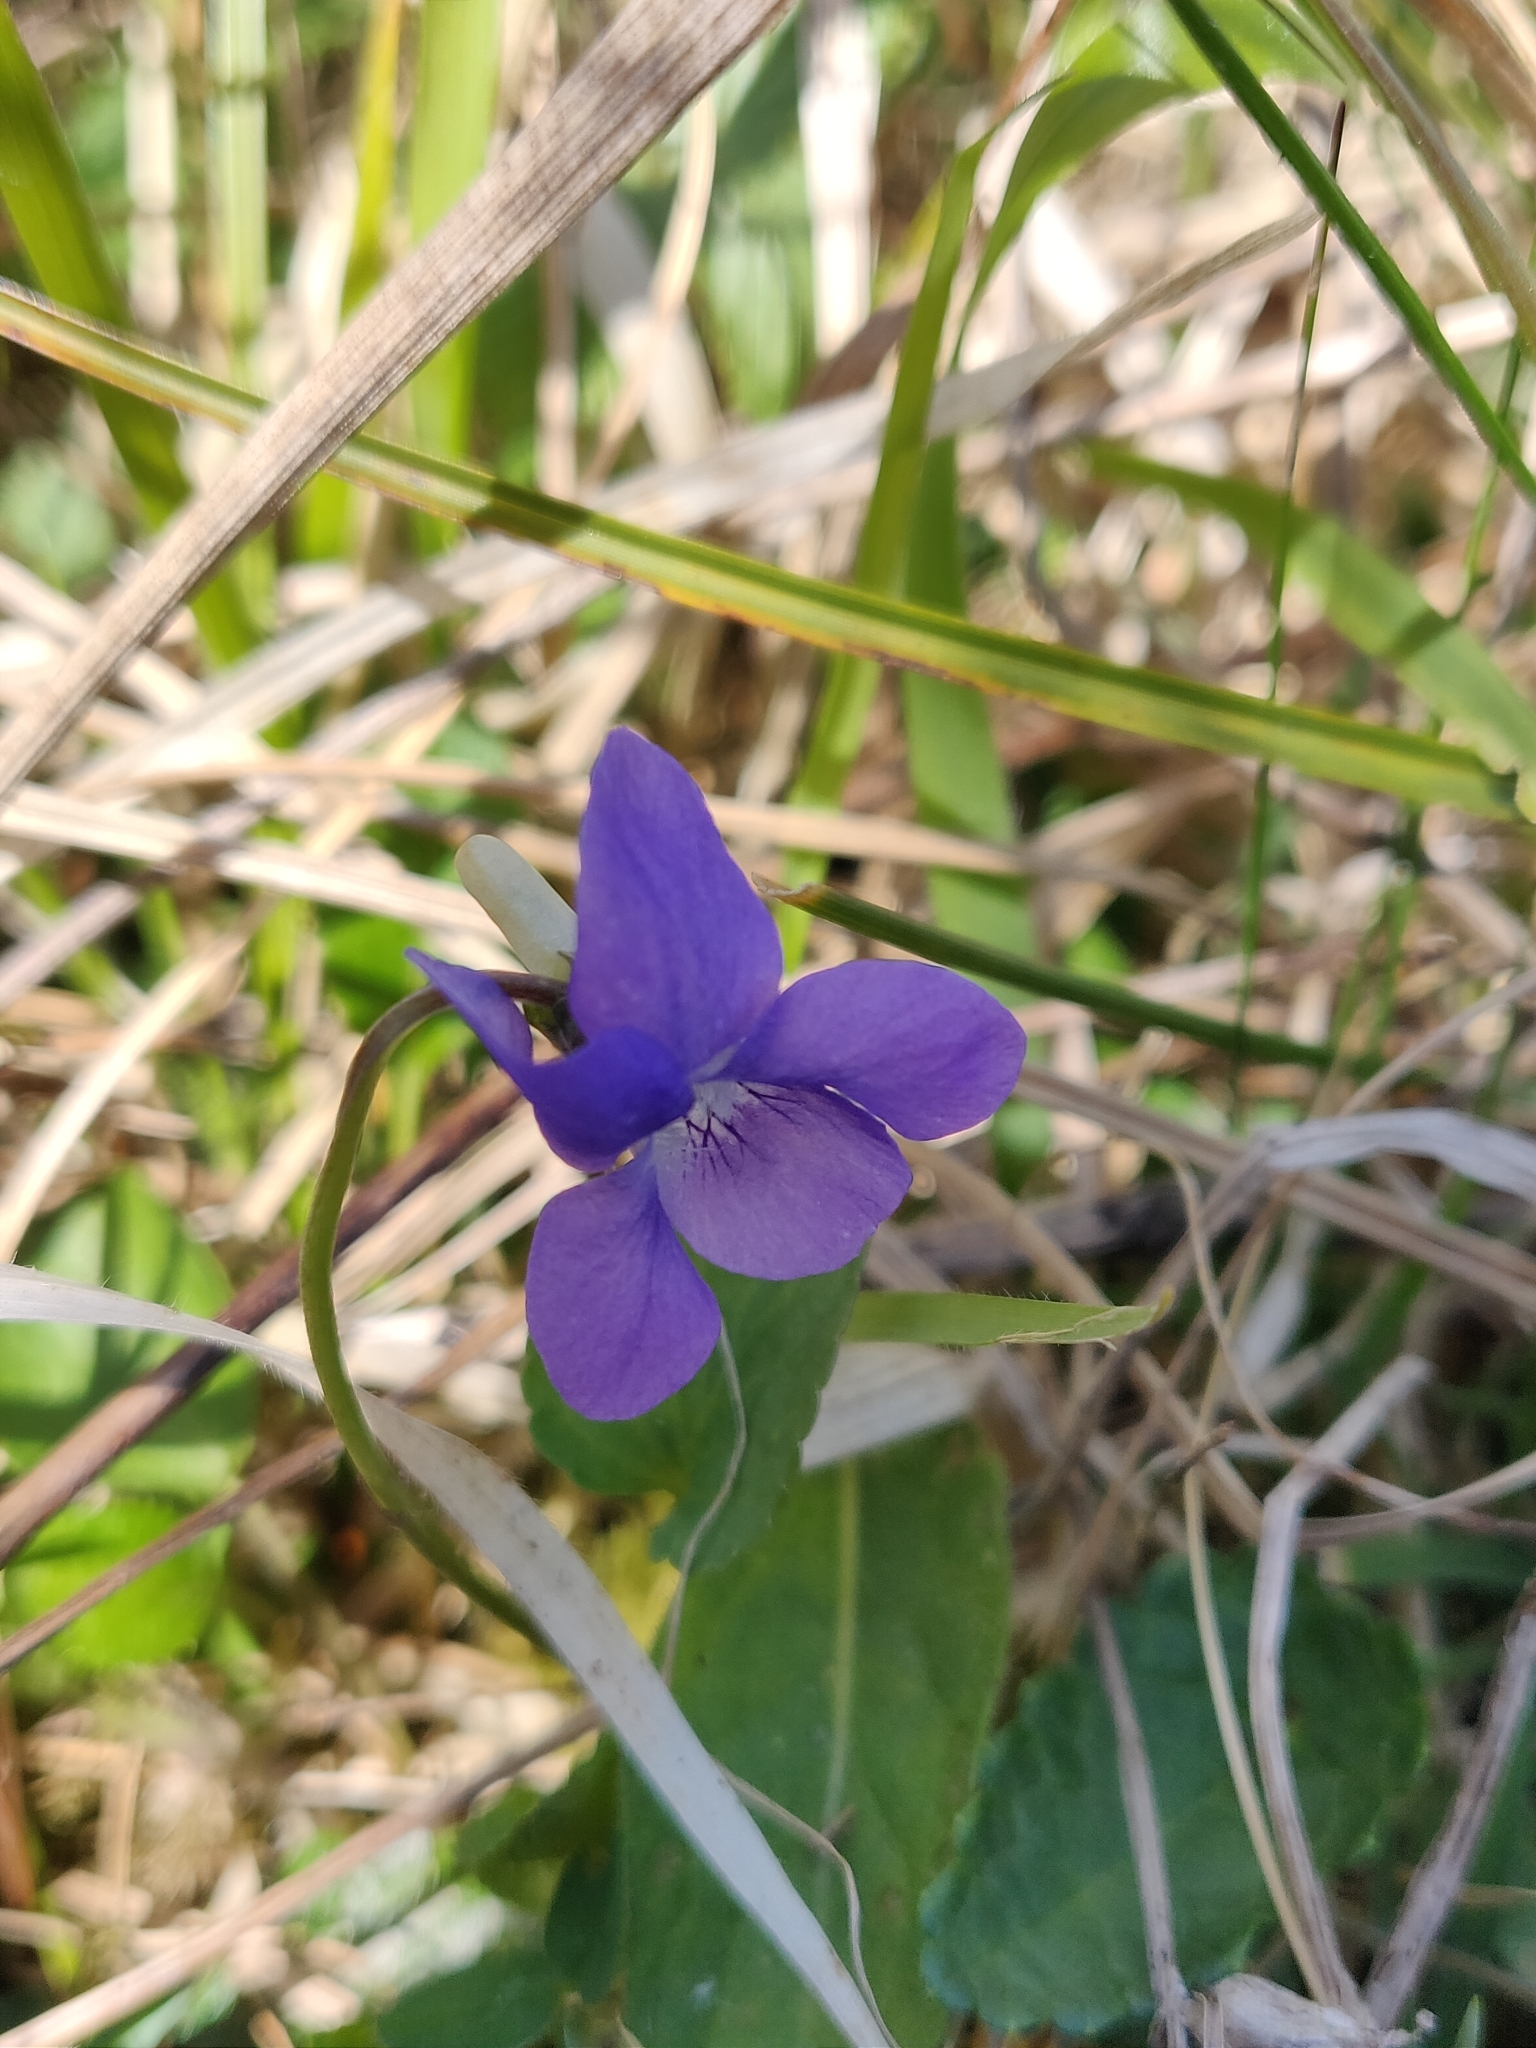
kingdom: Plantae
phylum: Tracheophyta
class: Magnoliopsida
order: Malpighiales
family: Violaceae
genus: Viola
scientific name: Viola riviniana
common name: Common dog-violet
